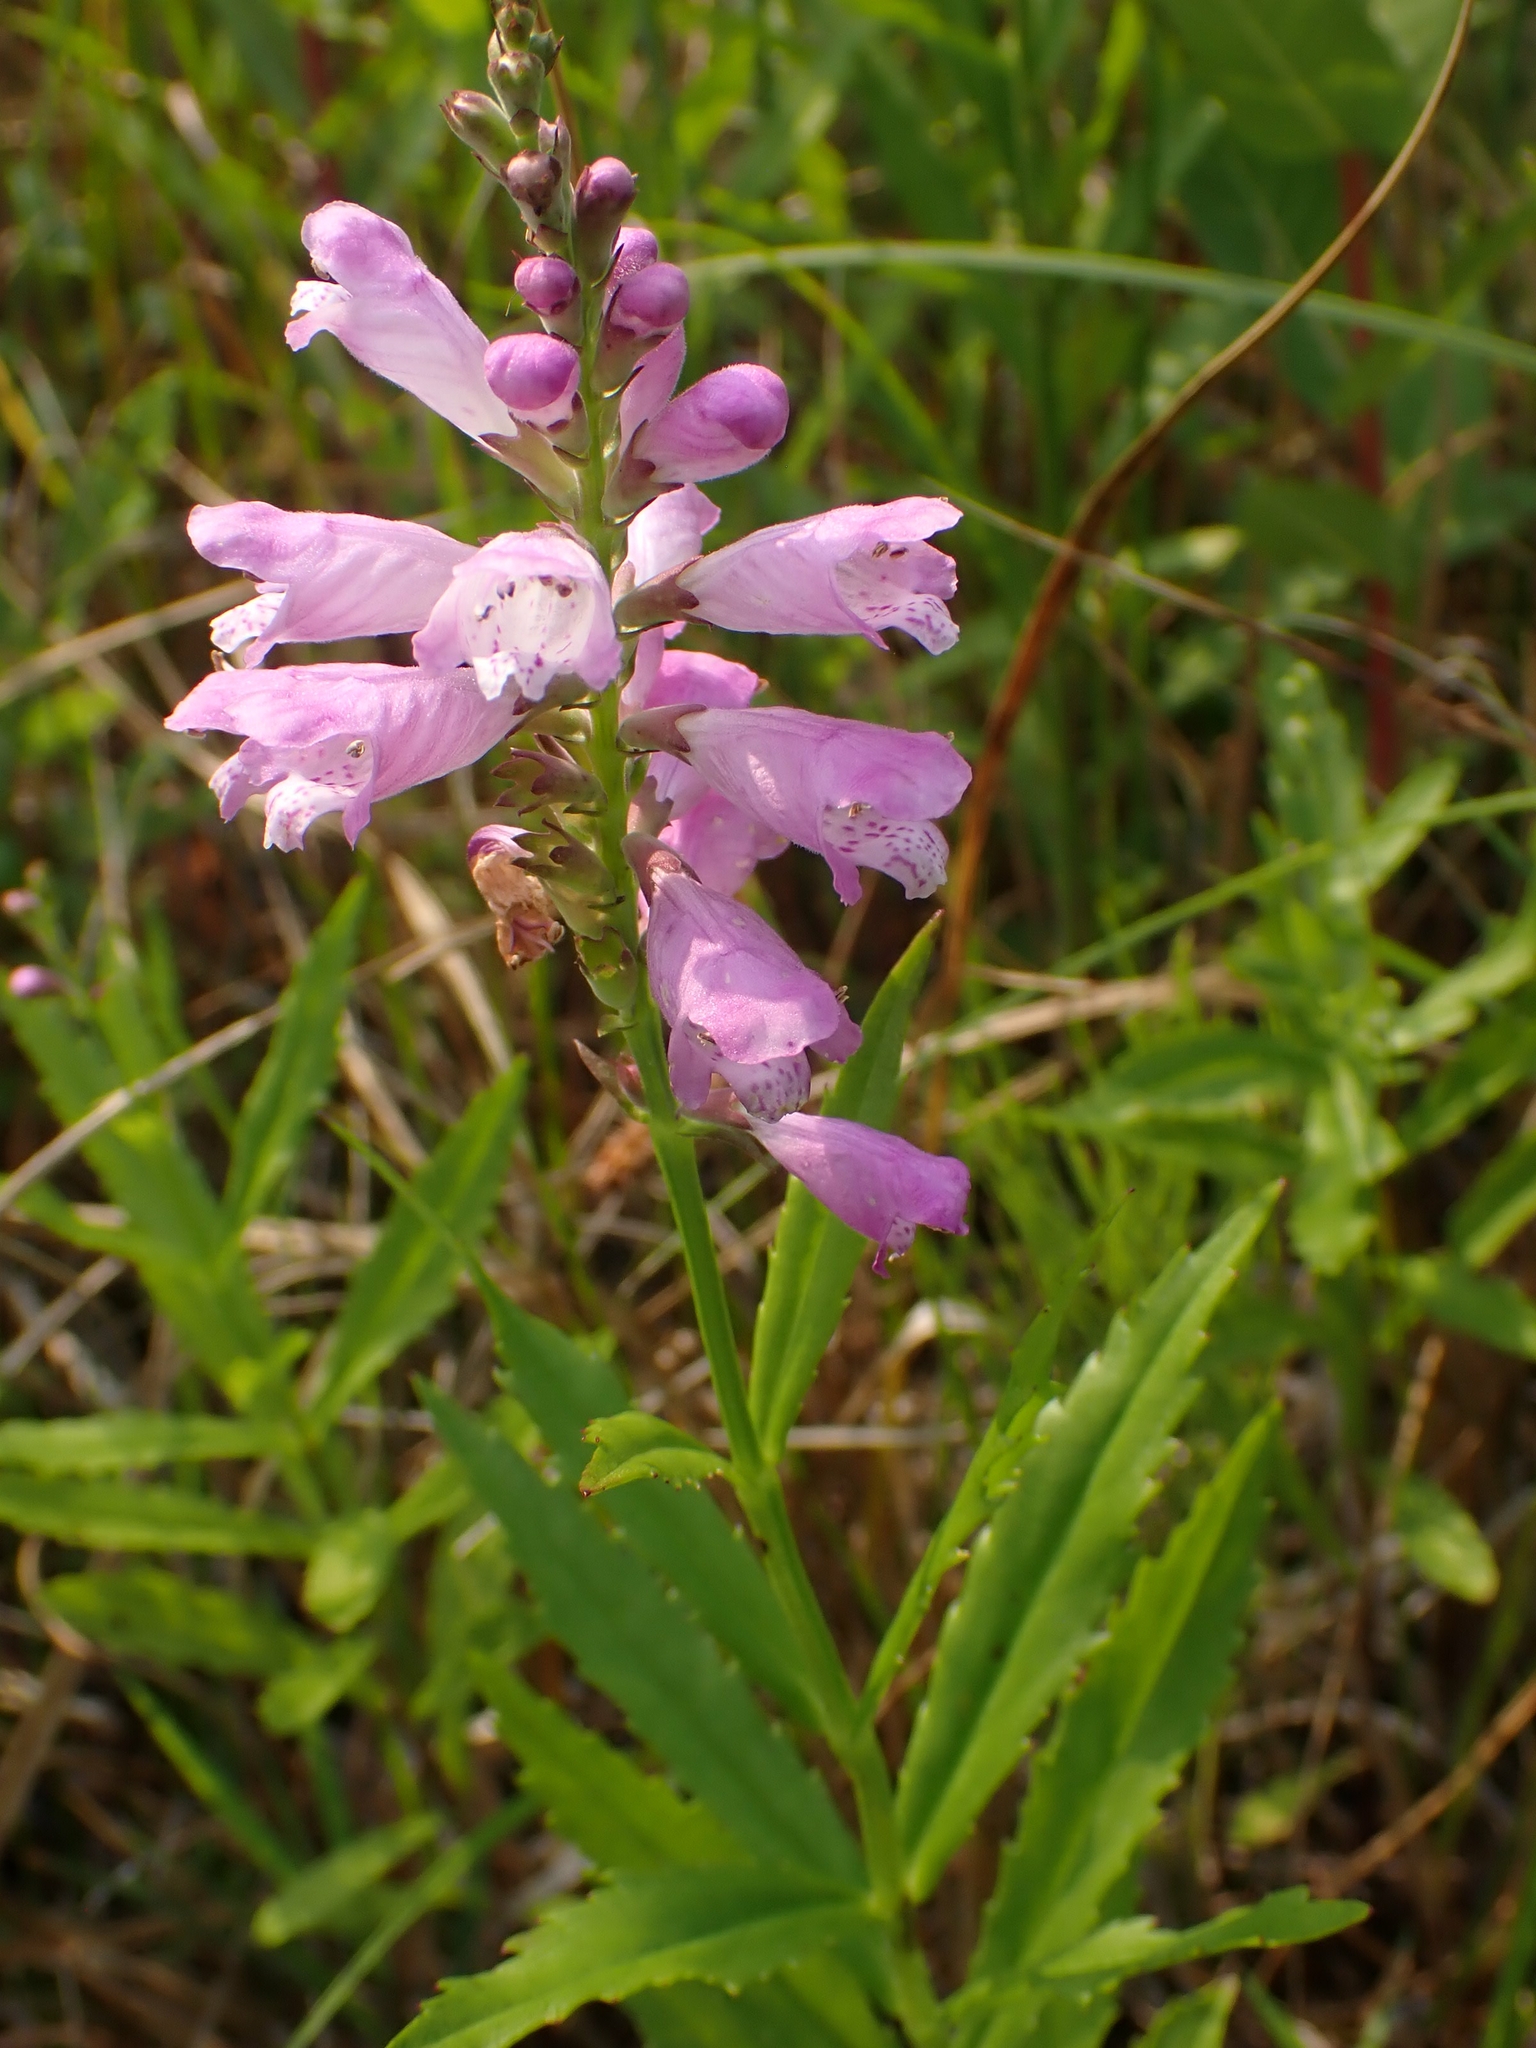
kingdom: Plantae
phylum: Tracheophyta
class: Magnoliopsida
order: Lamiales
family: Lamiaceae
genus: Physostegia
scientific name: Physostegia virginiana
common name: Obedient-plant
